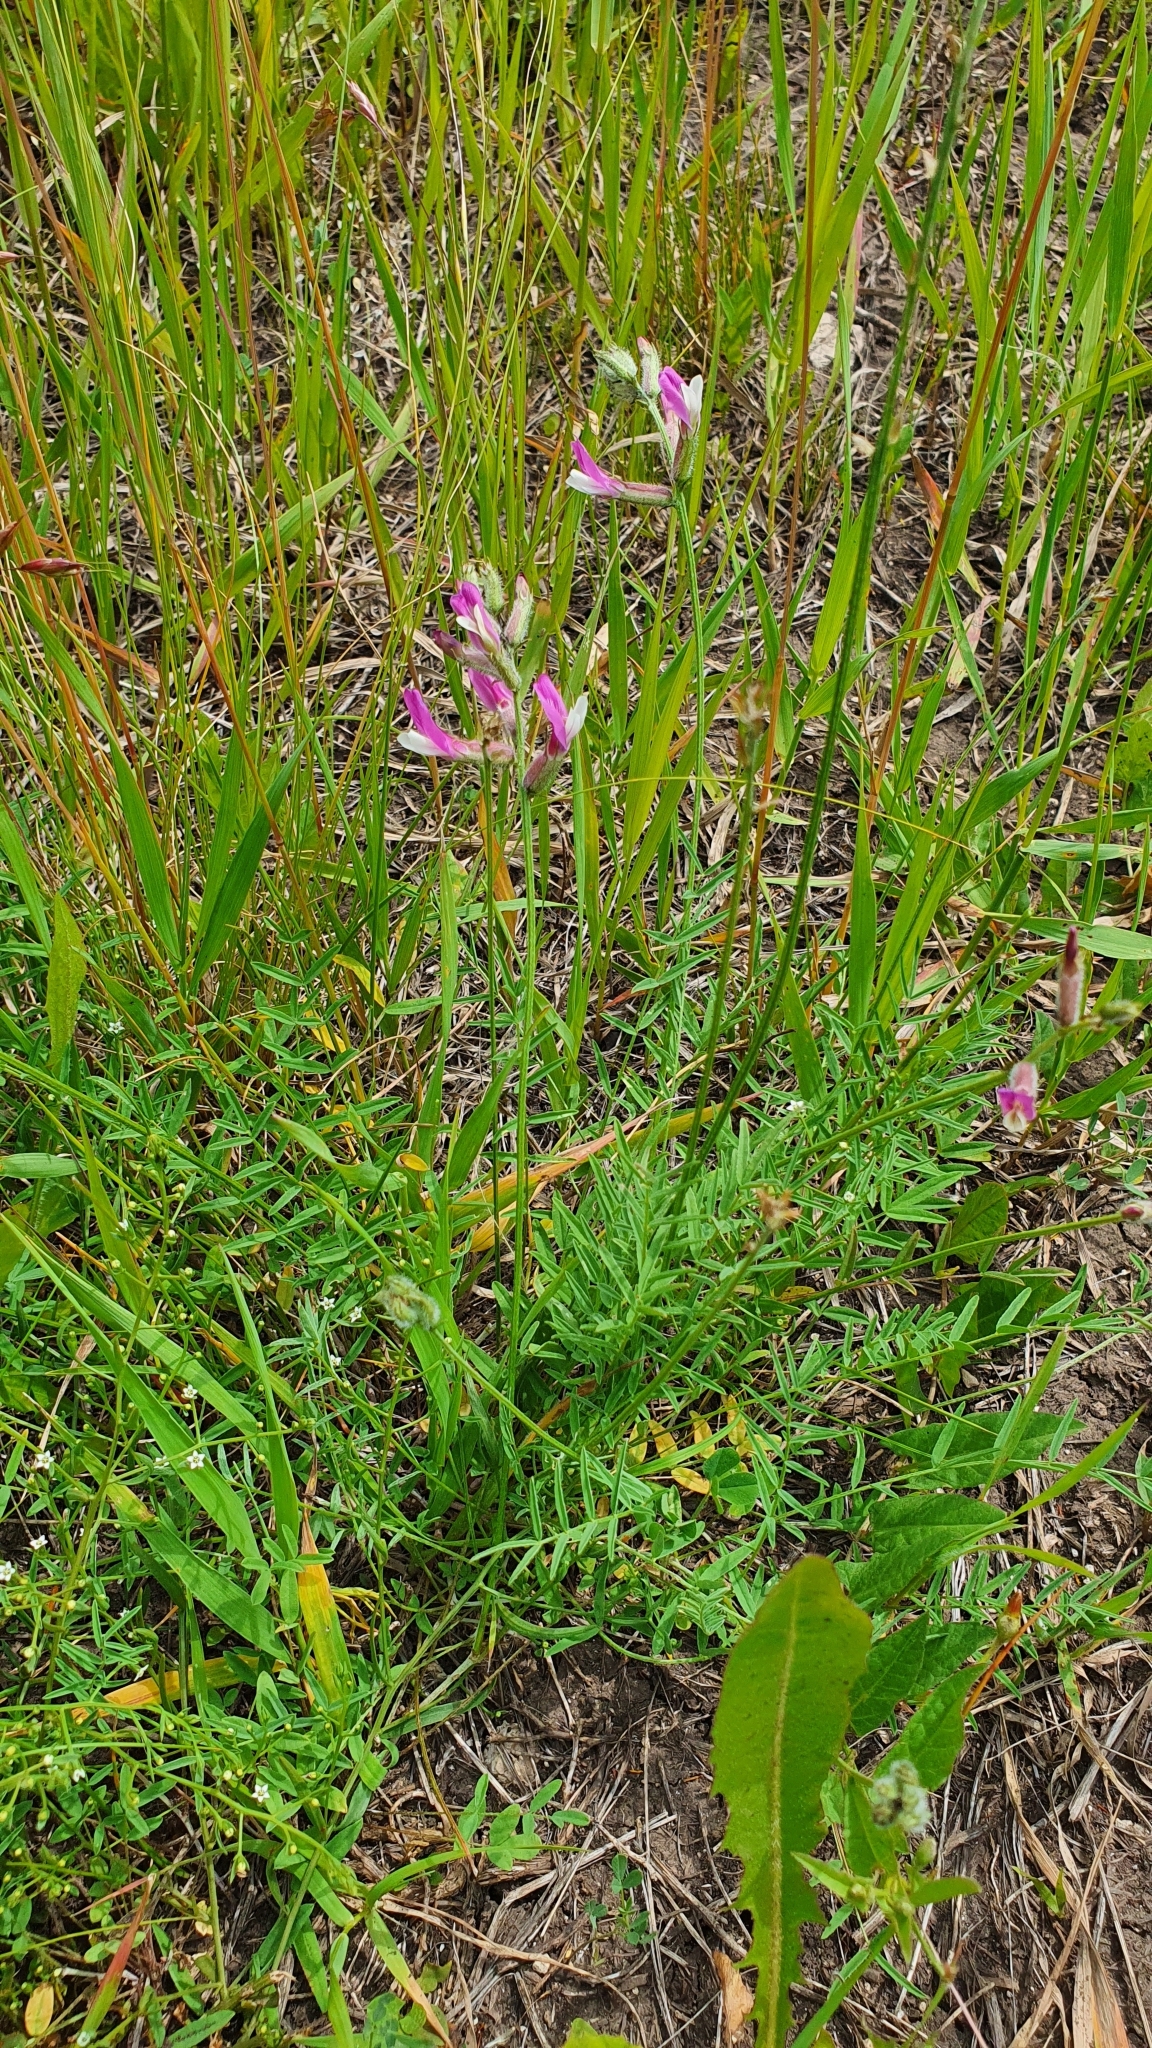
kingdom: Plantae
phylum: Tracheophyta
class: Magnoliopsida
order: Fabales
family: Fabaceae
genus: Astragalus
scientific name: Astragalus macropus
